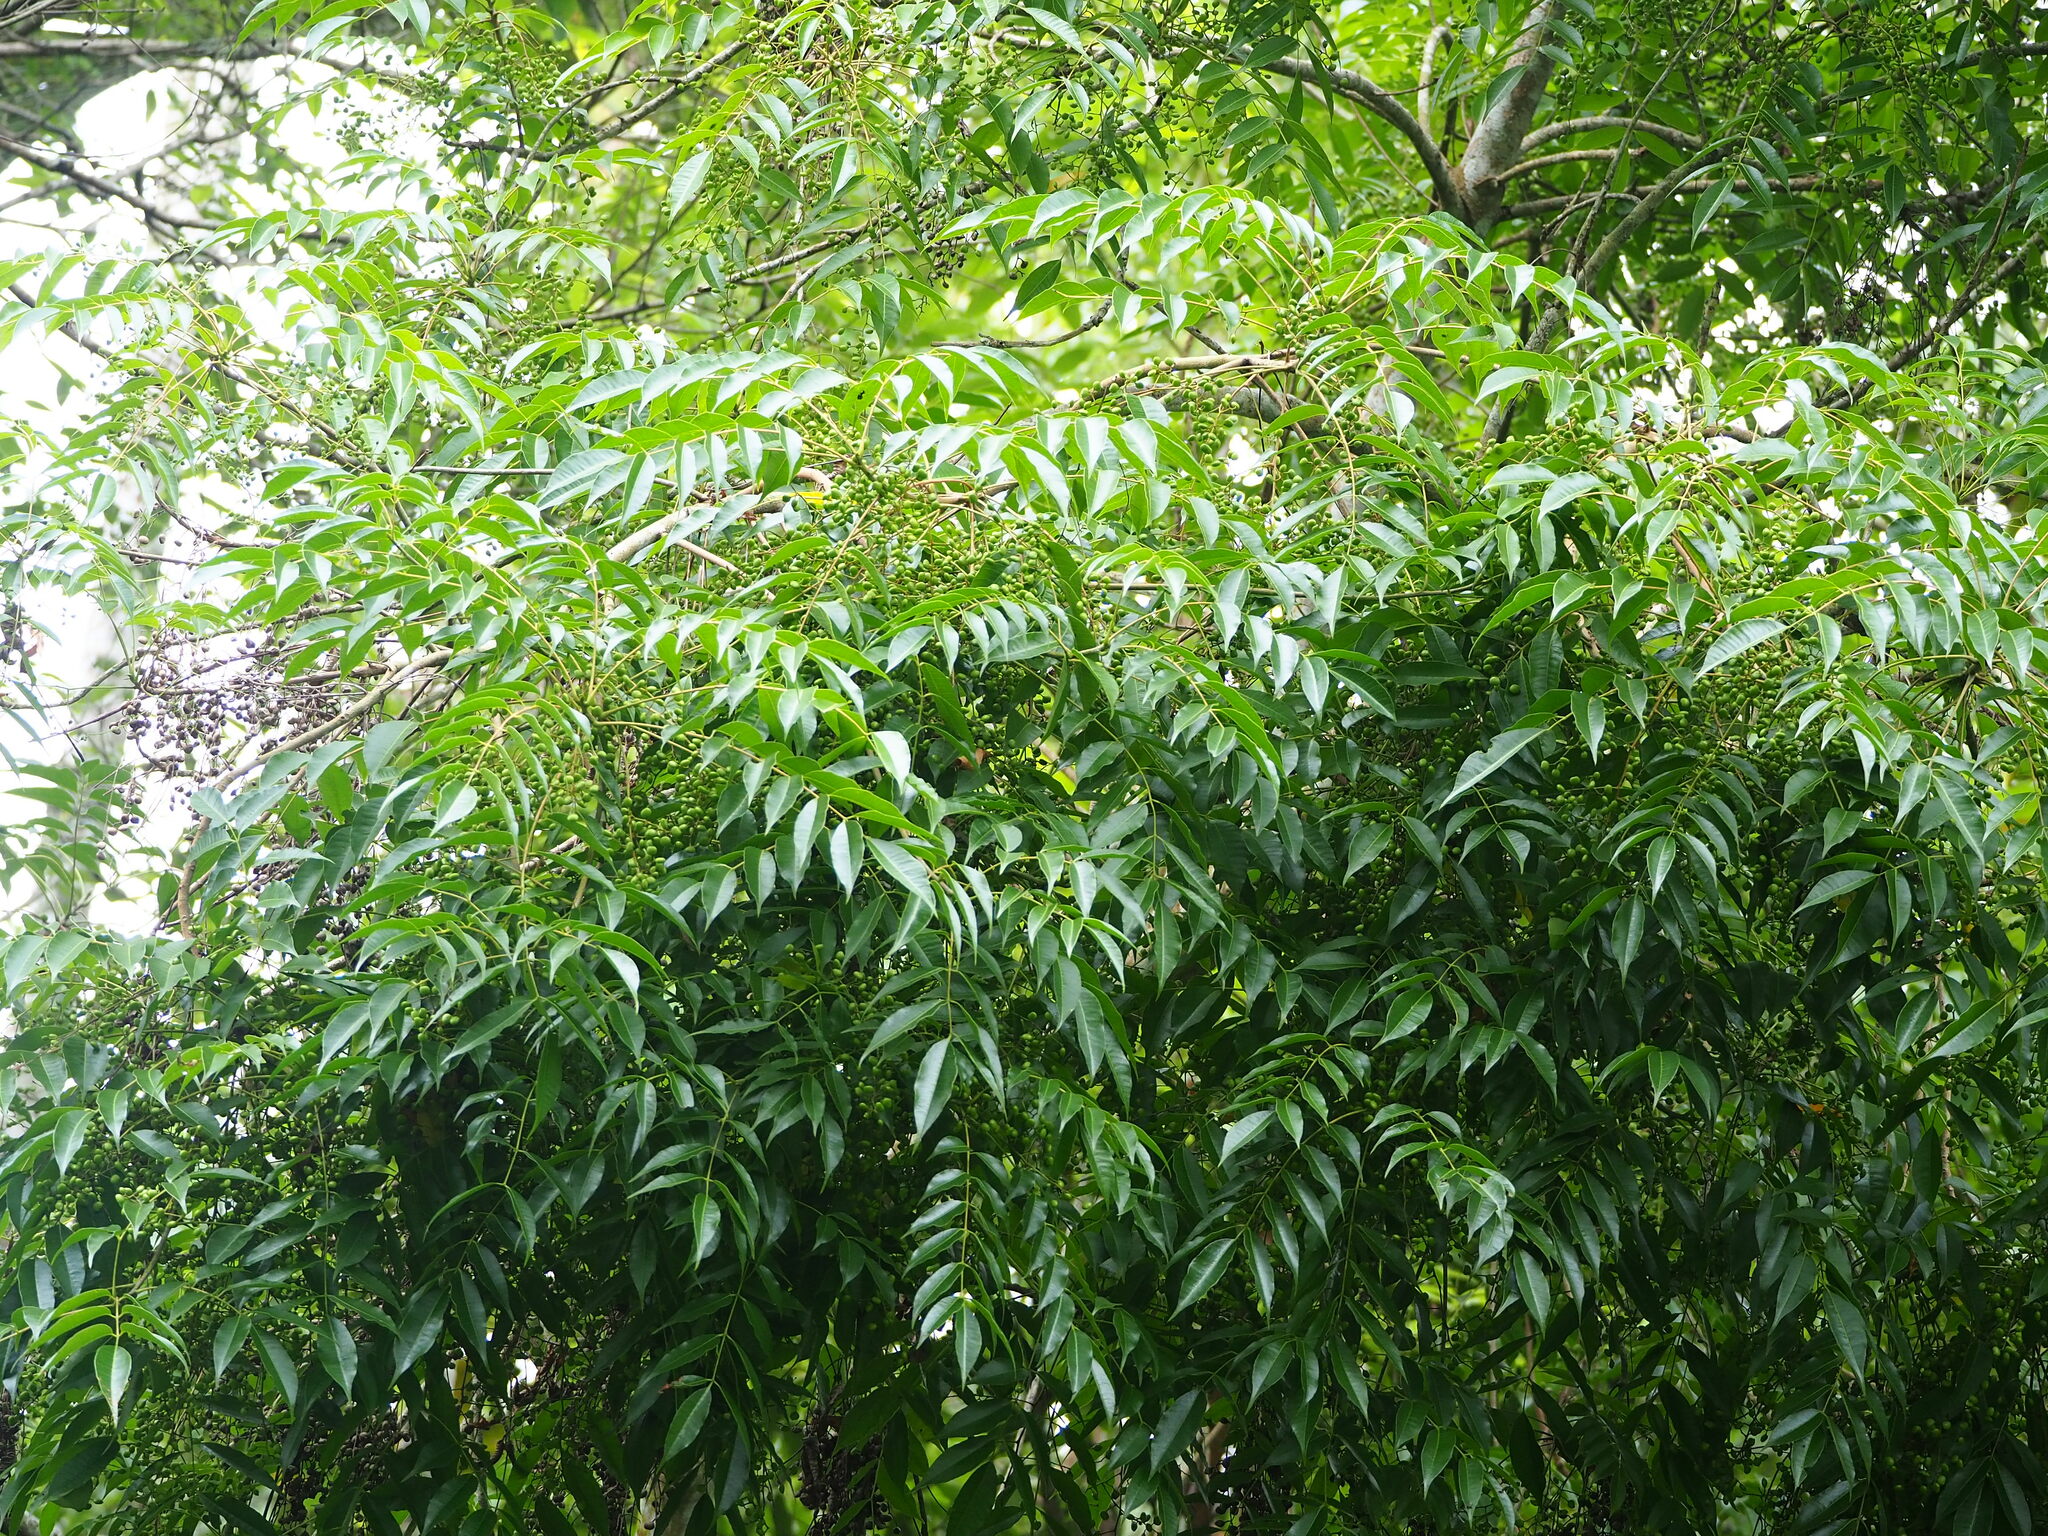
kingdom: Plantae
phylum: Tracheophyta
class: Magnoliopsida
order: Sapindales
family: Anacardiaceae
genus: Toxicodendron
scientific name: Toxicodendron succedaneum
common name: Wax tree
